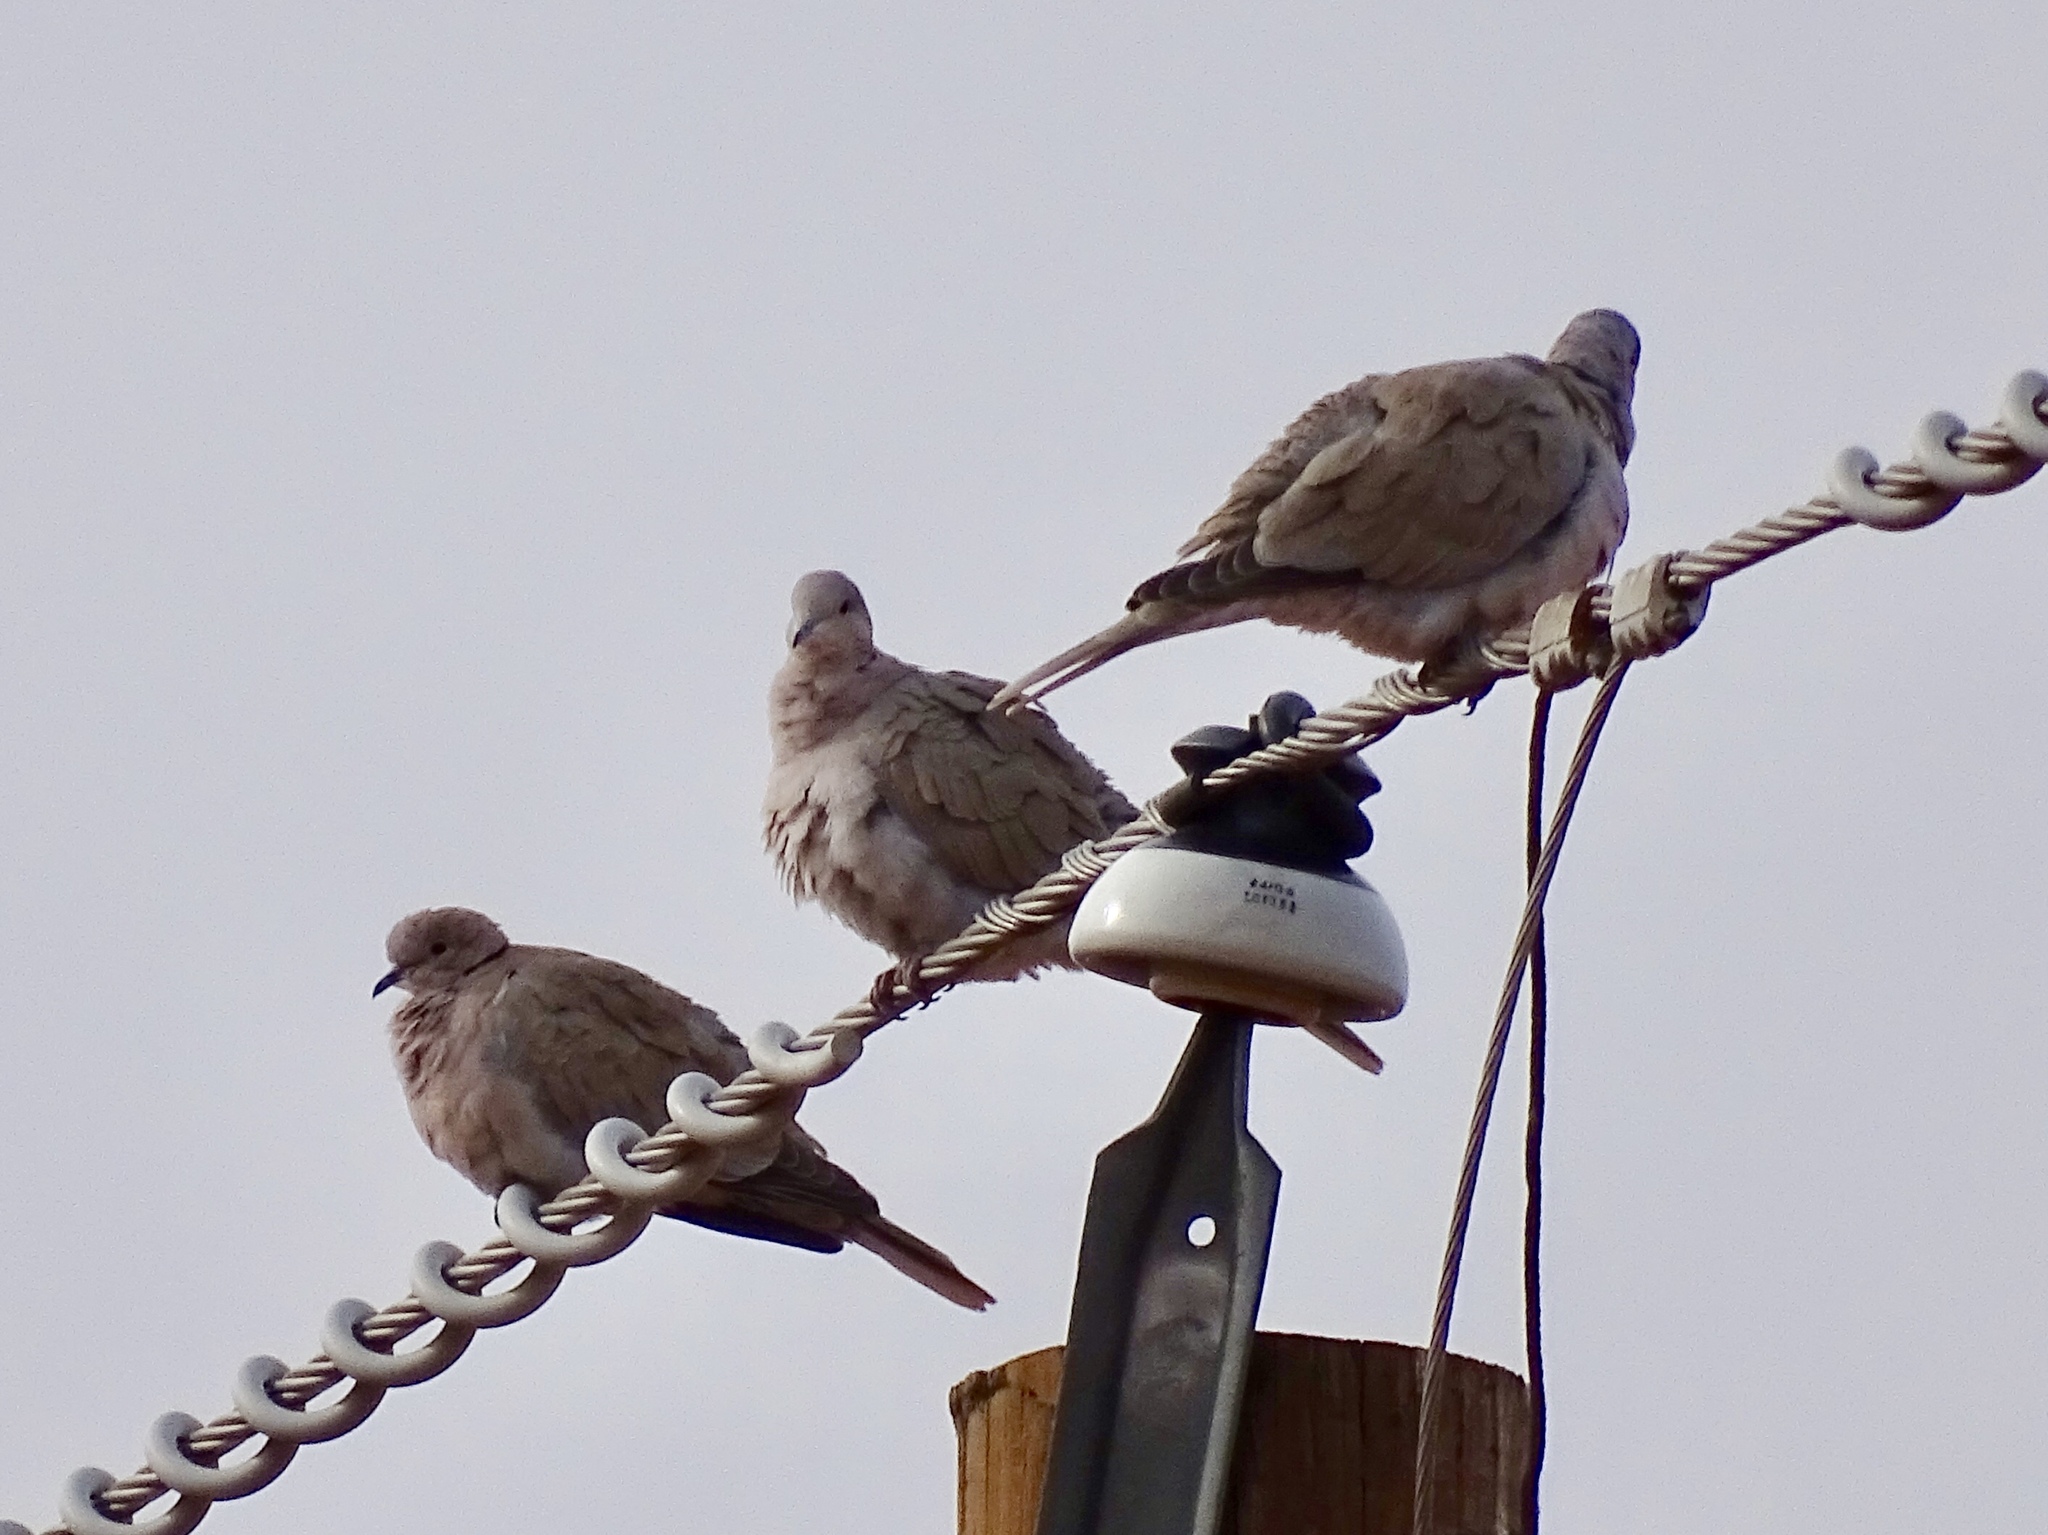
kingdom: Animalia
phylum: Chordata
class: Aves
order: Columbiformes
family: Columbidae
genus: Streptopelia
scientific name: Streptopelia decaocto
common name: Eurasian collared dove
